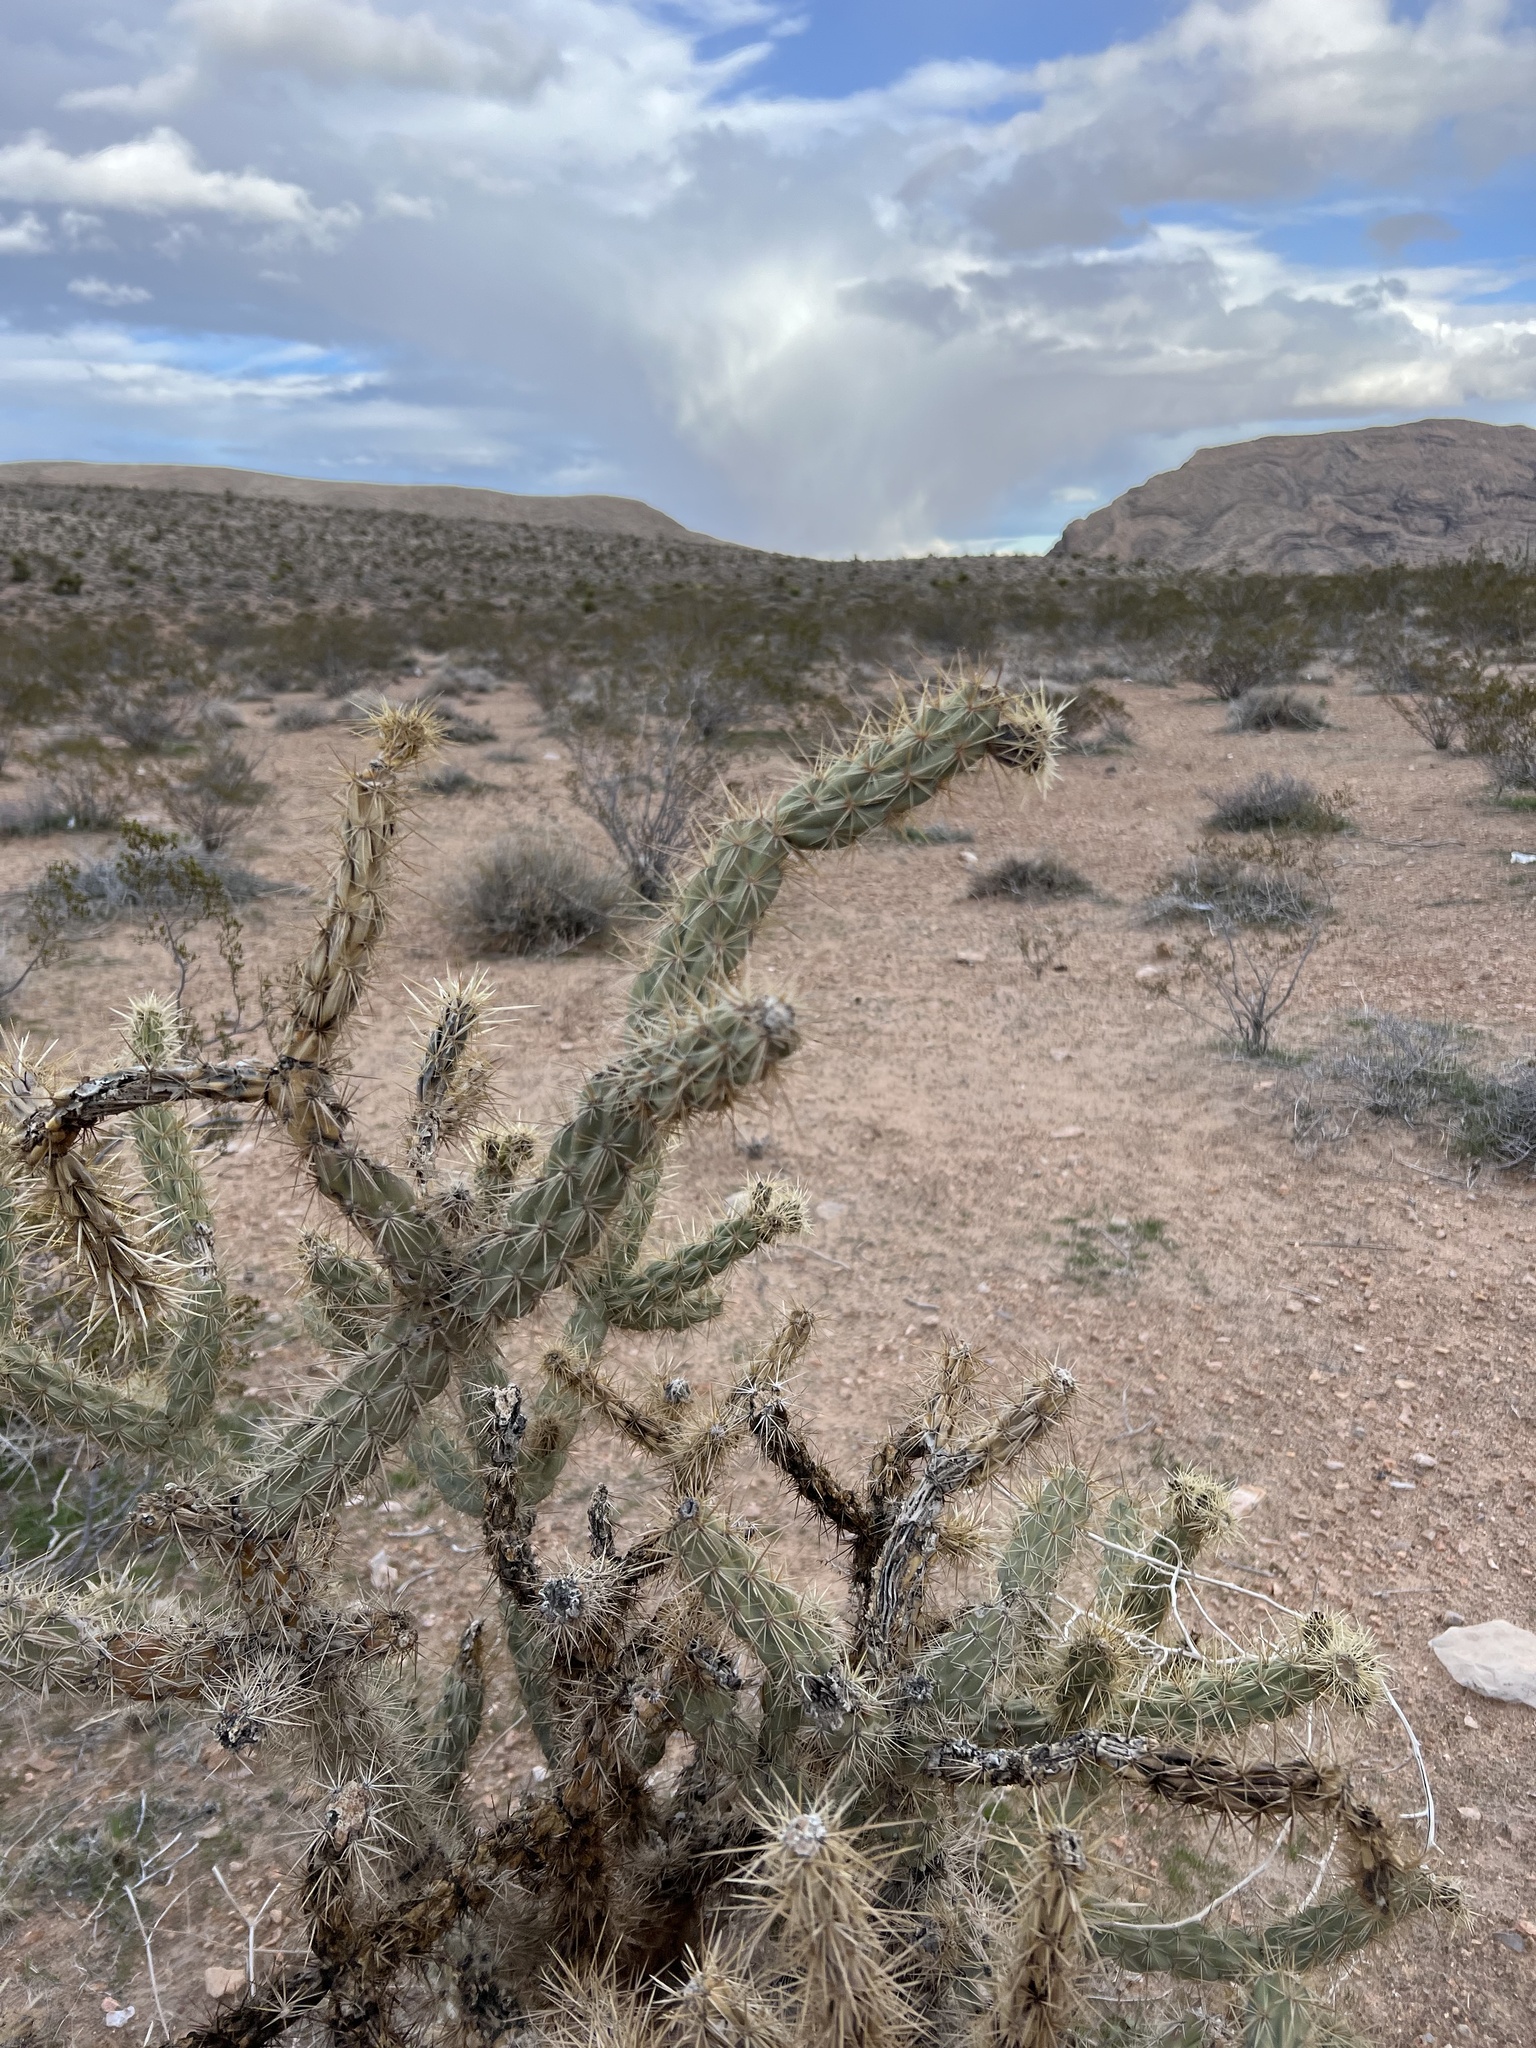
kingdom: Plantae
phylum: Tracheophyta
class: Magnoliopsida
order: Caryophyllales
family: Cactaceae
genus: Cylindropuntia
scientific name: Cylindropuntia acanthocarpa
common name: Buckhorn cholla
